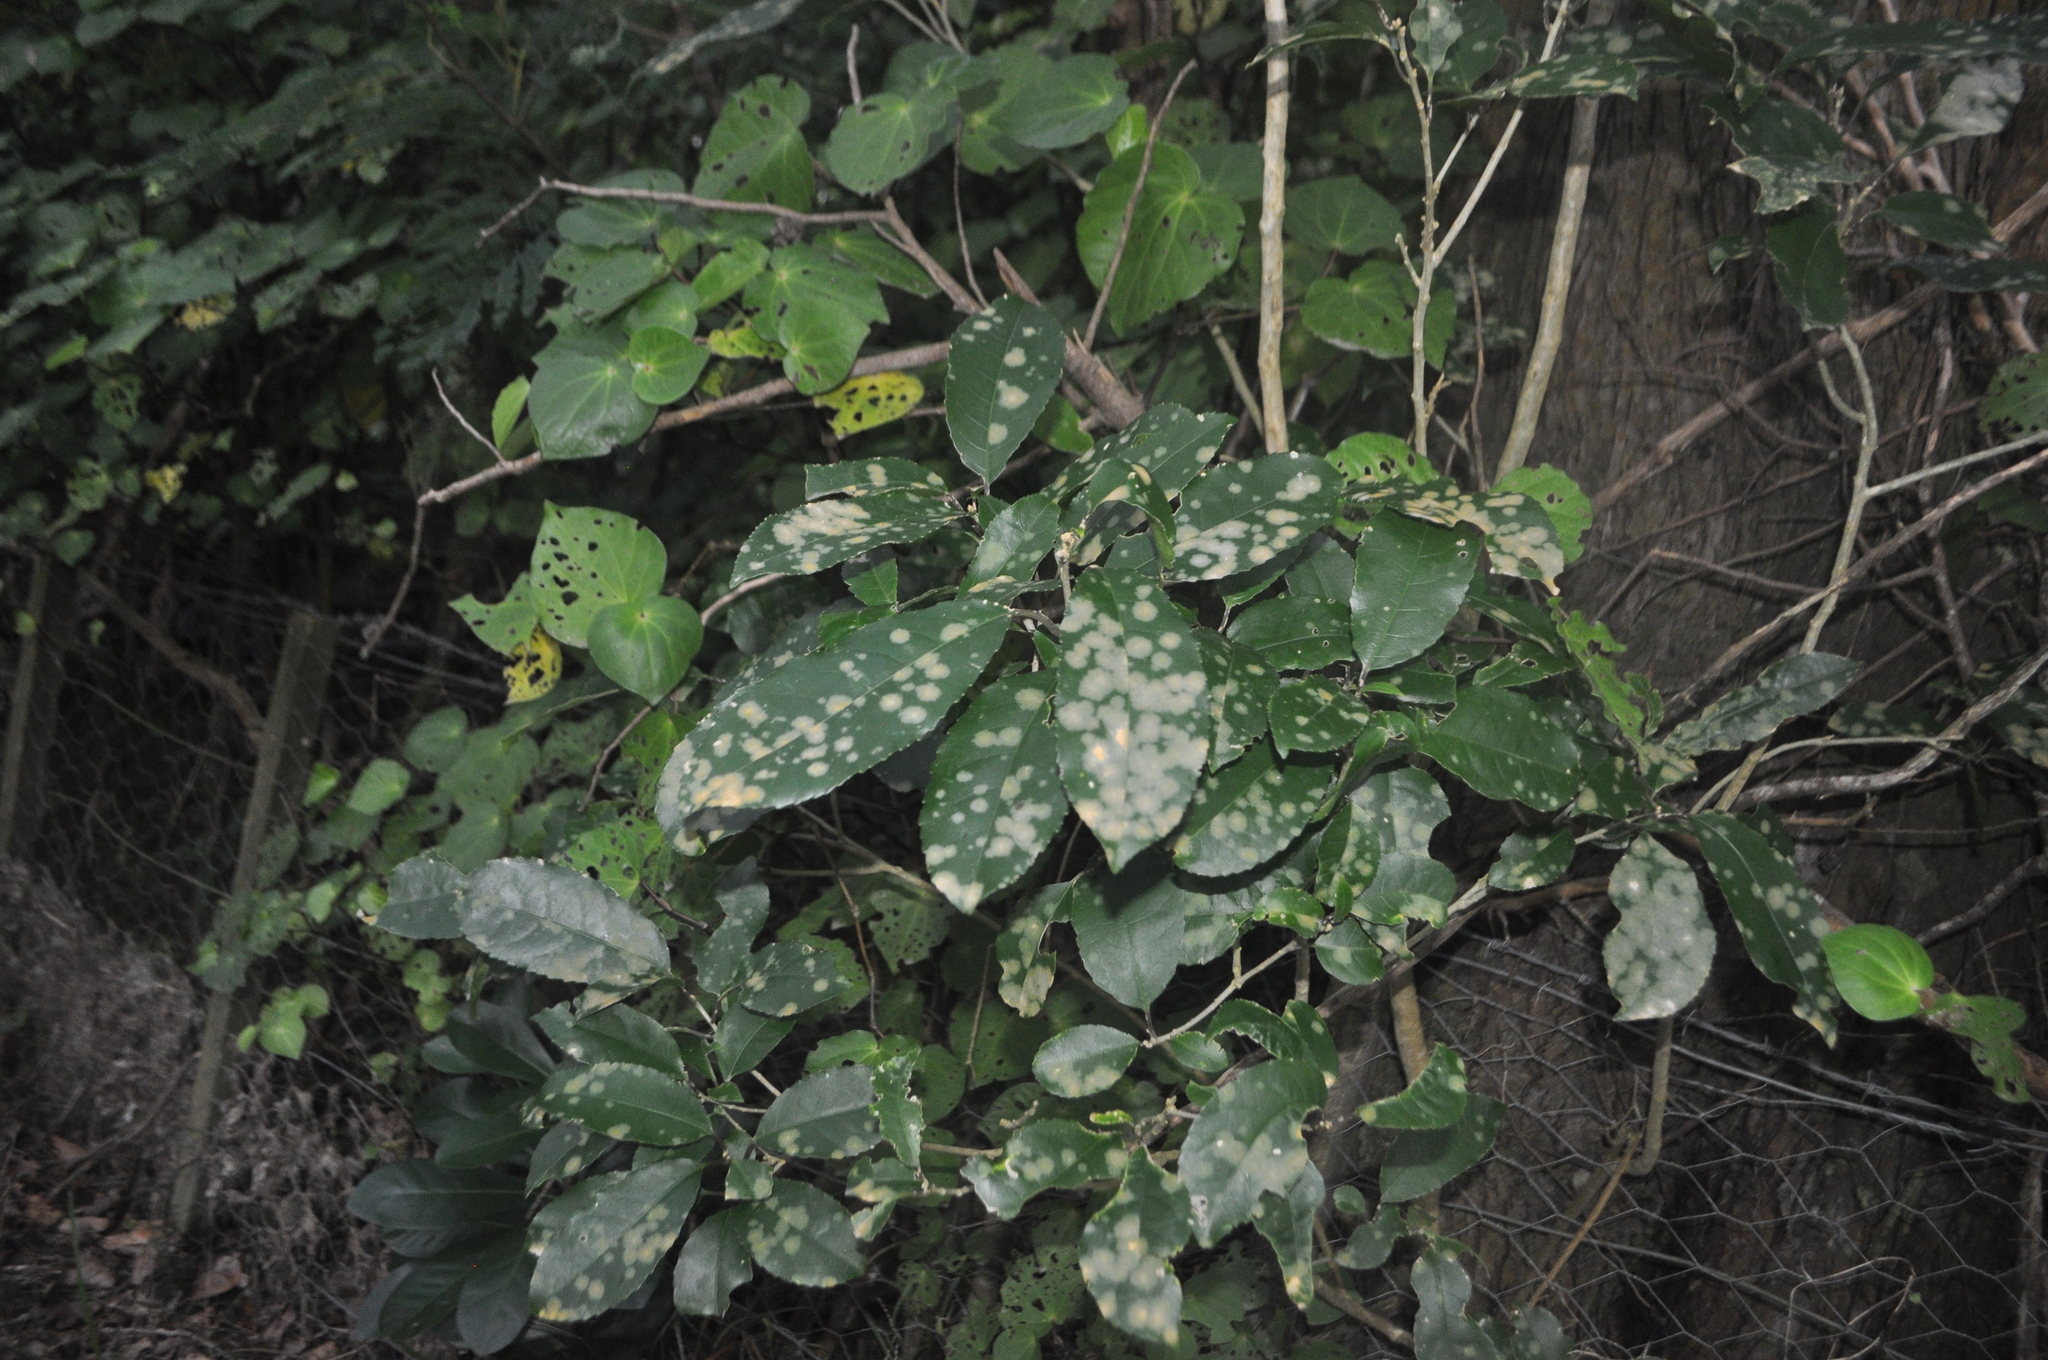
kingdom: Plantae
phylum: Tracheophyta
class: Magnoliopsida
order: Malpighiales
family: Violaceae
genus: Melicytus
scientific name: Melicytus ramiflorus
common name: Mahoe
